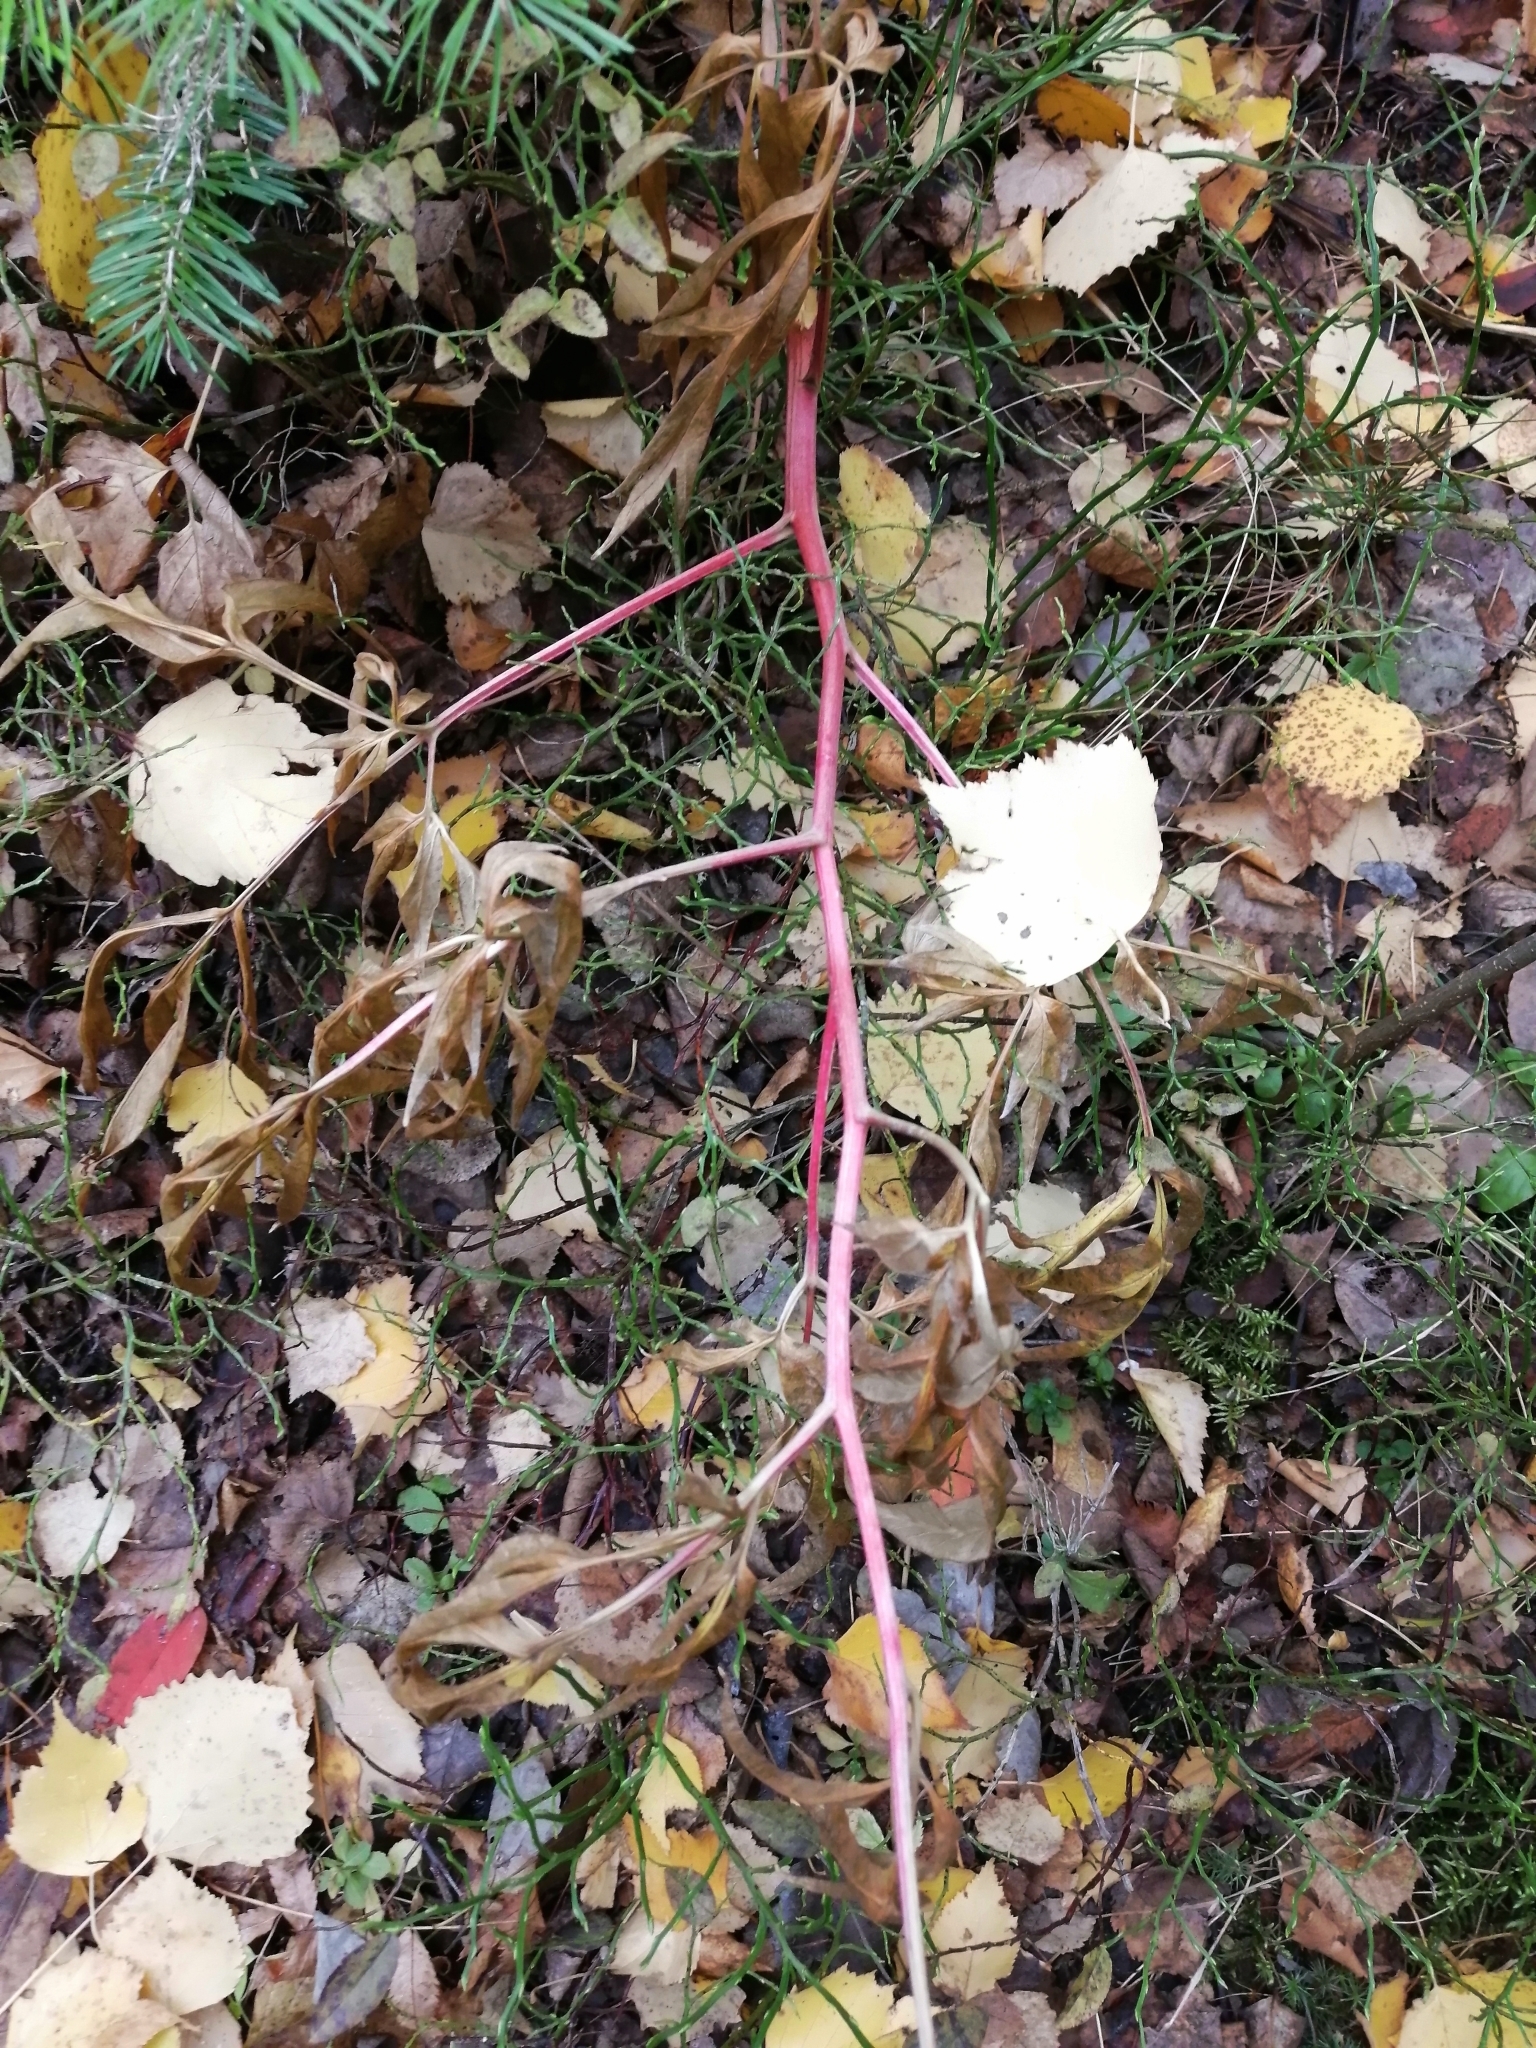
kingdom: Plantae
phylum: Tracheophyta
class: Magnoliopsida
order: Saxifragales
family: Paeoniaceae
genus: Paeonia
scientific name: Paeonia anomala
